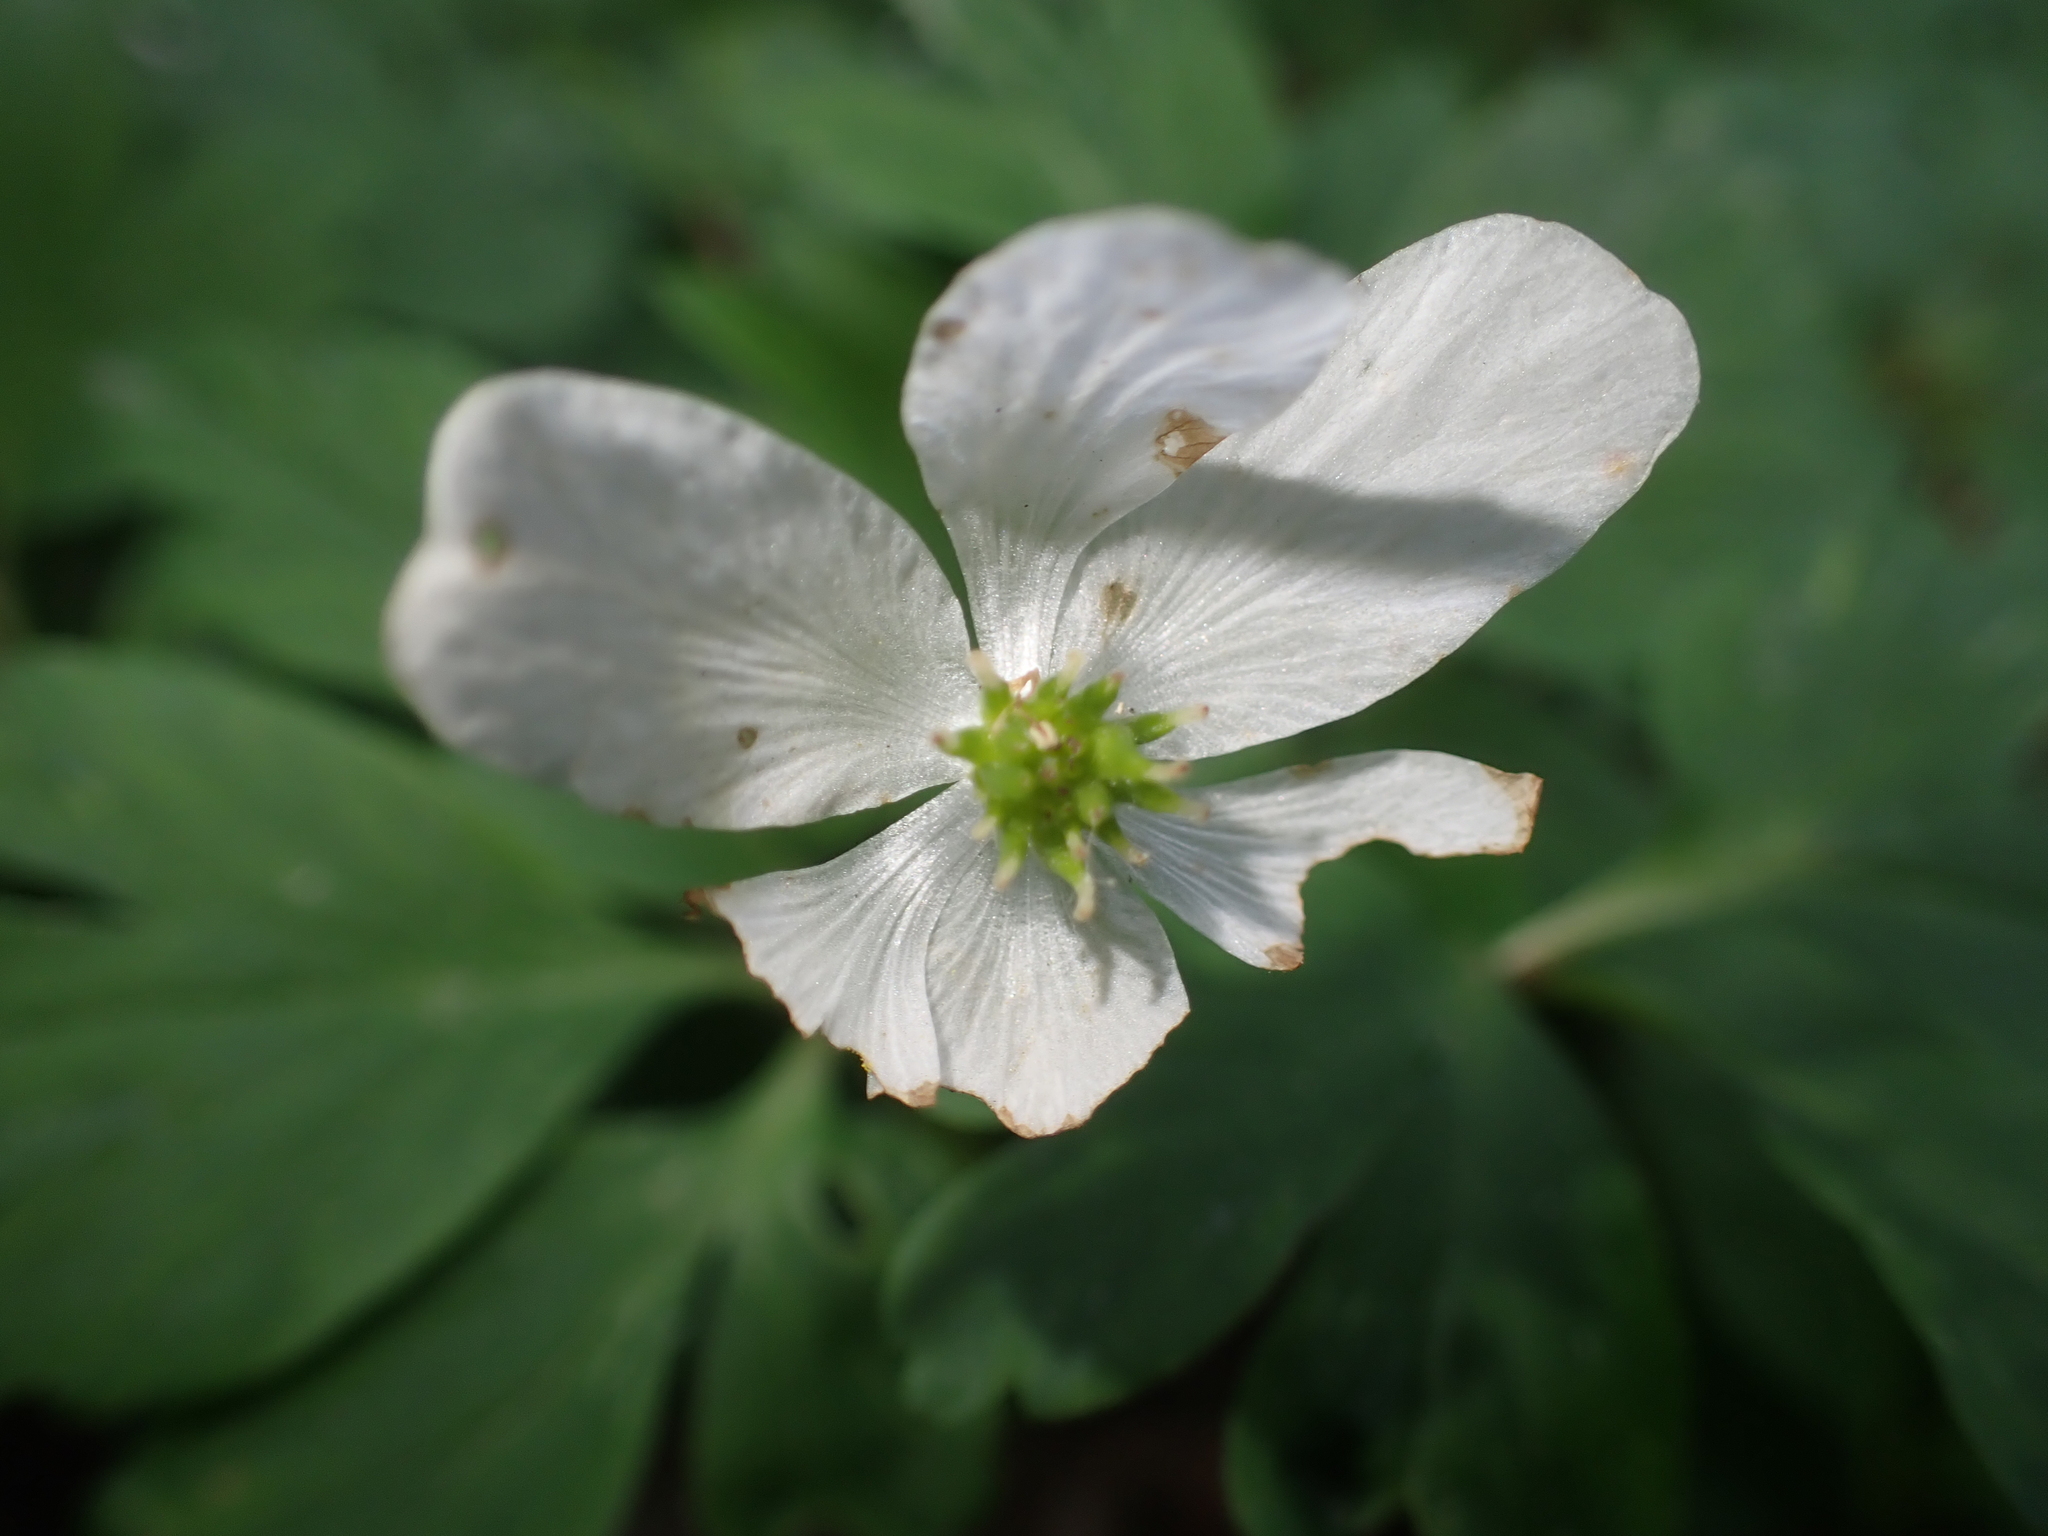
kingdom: Plantae
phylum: Tracheophyta
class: Magnoliopsida
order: Ranunculales
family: Ranunculaceae
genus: Anemone
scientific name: Anemone nemorosa
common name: Wood anemone
